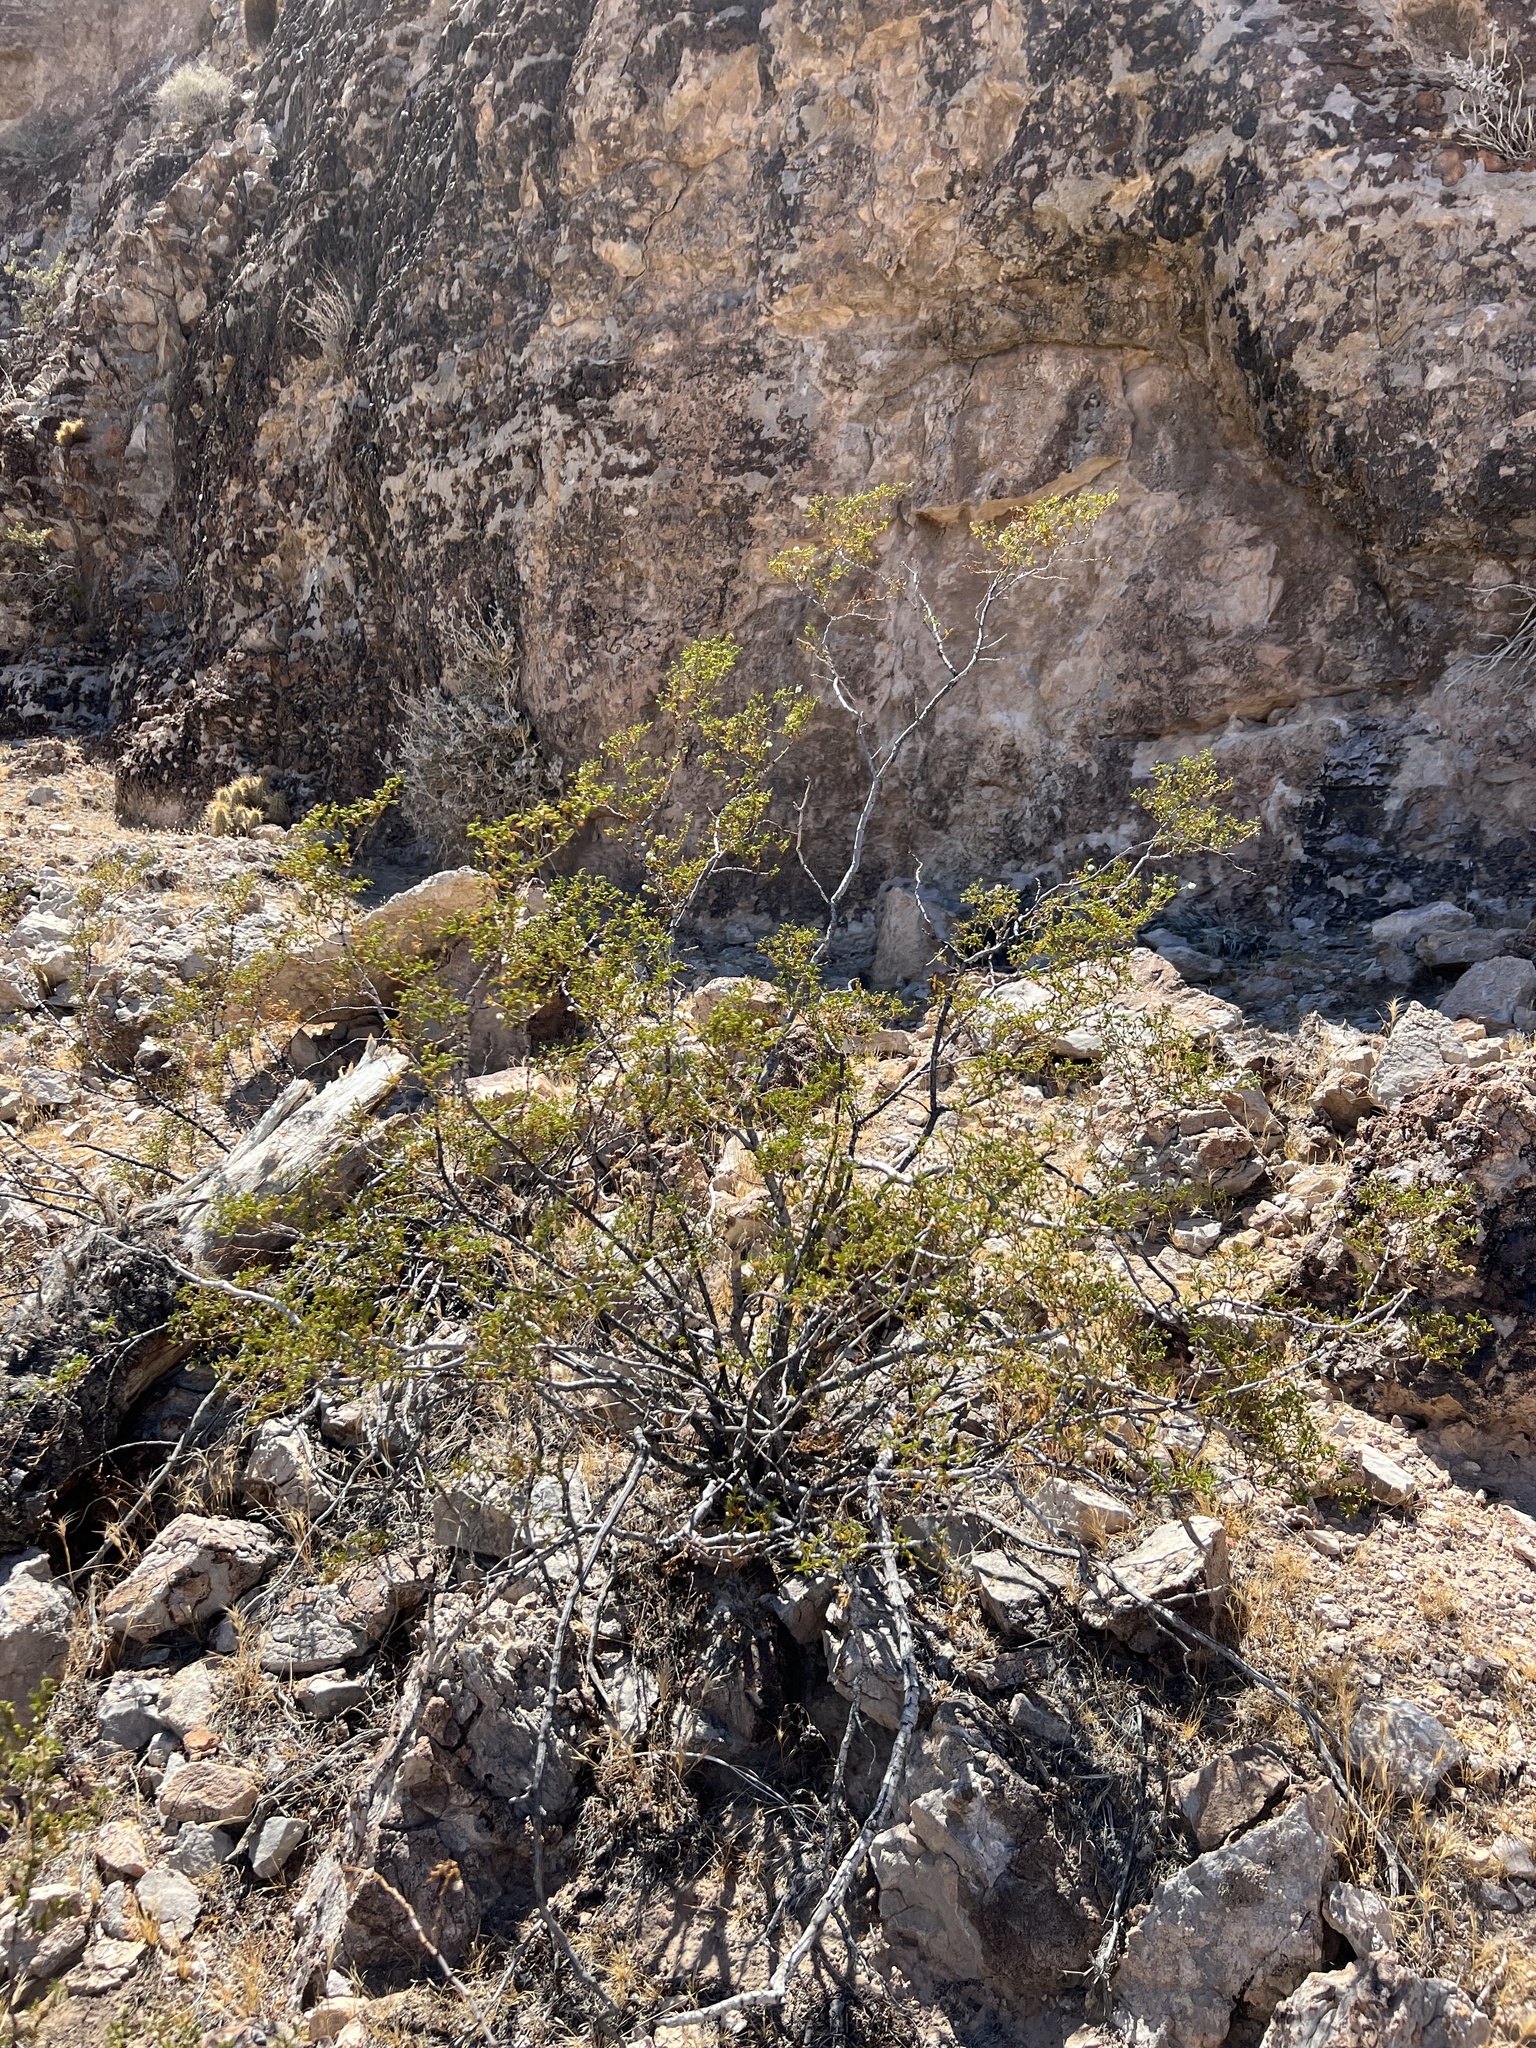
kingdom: Plantae
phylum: Tracheophyta
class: Magnoliopsida
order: Zygophyllales
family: Zygophyllaceae
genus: Larrea
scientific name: Larrea tridentata
